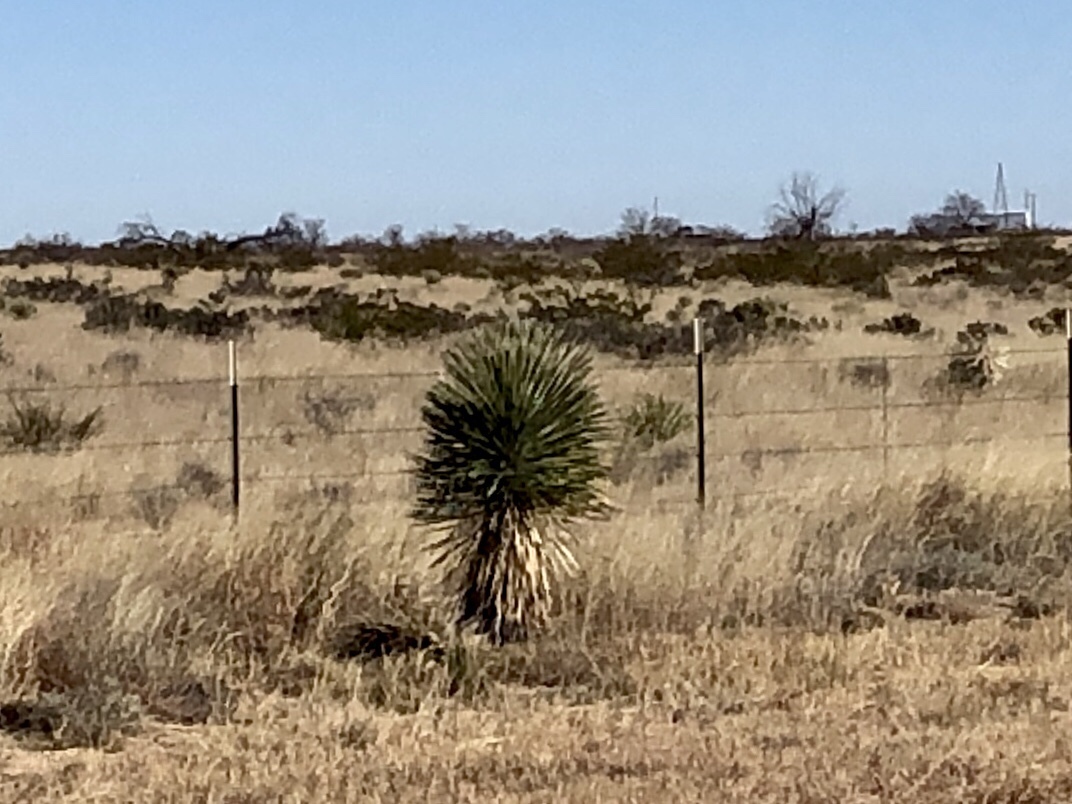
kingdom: Plantae
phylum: Tracheophyta
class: Liliopsida
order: Asparagales
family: Asparagaceae
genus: Yucca
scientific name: Yucca elata
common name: Palmella
